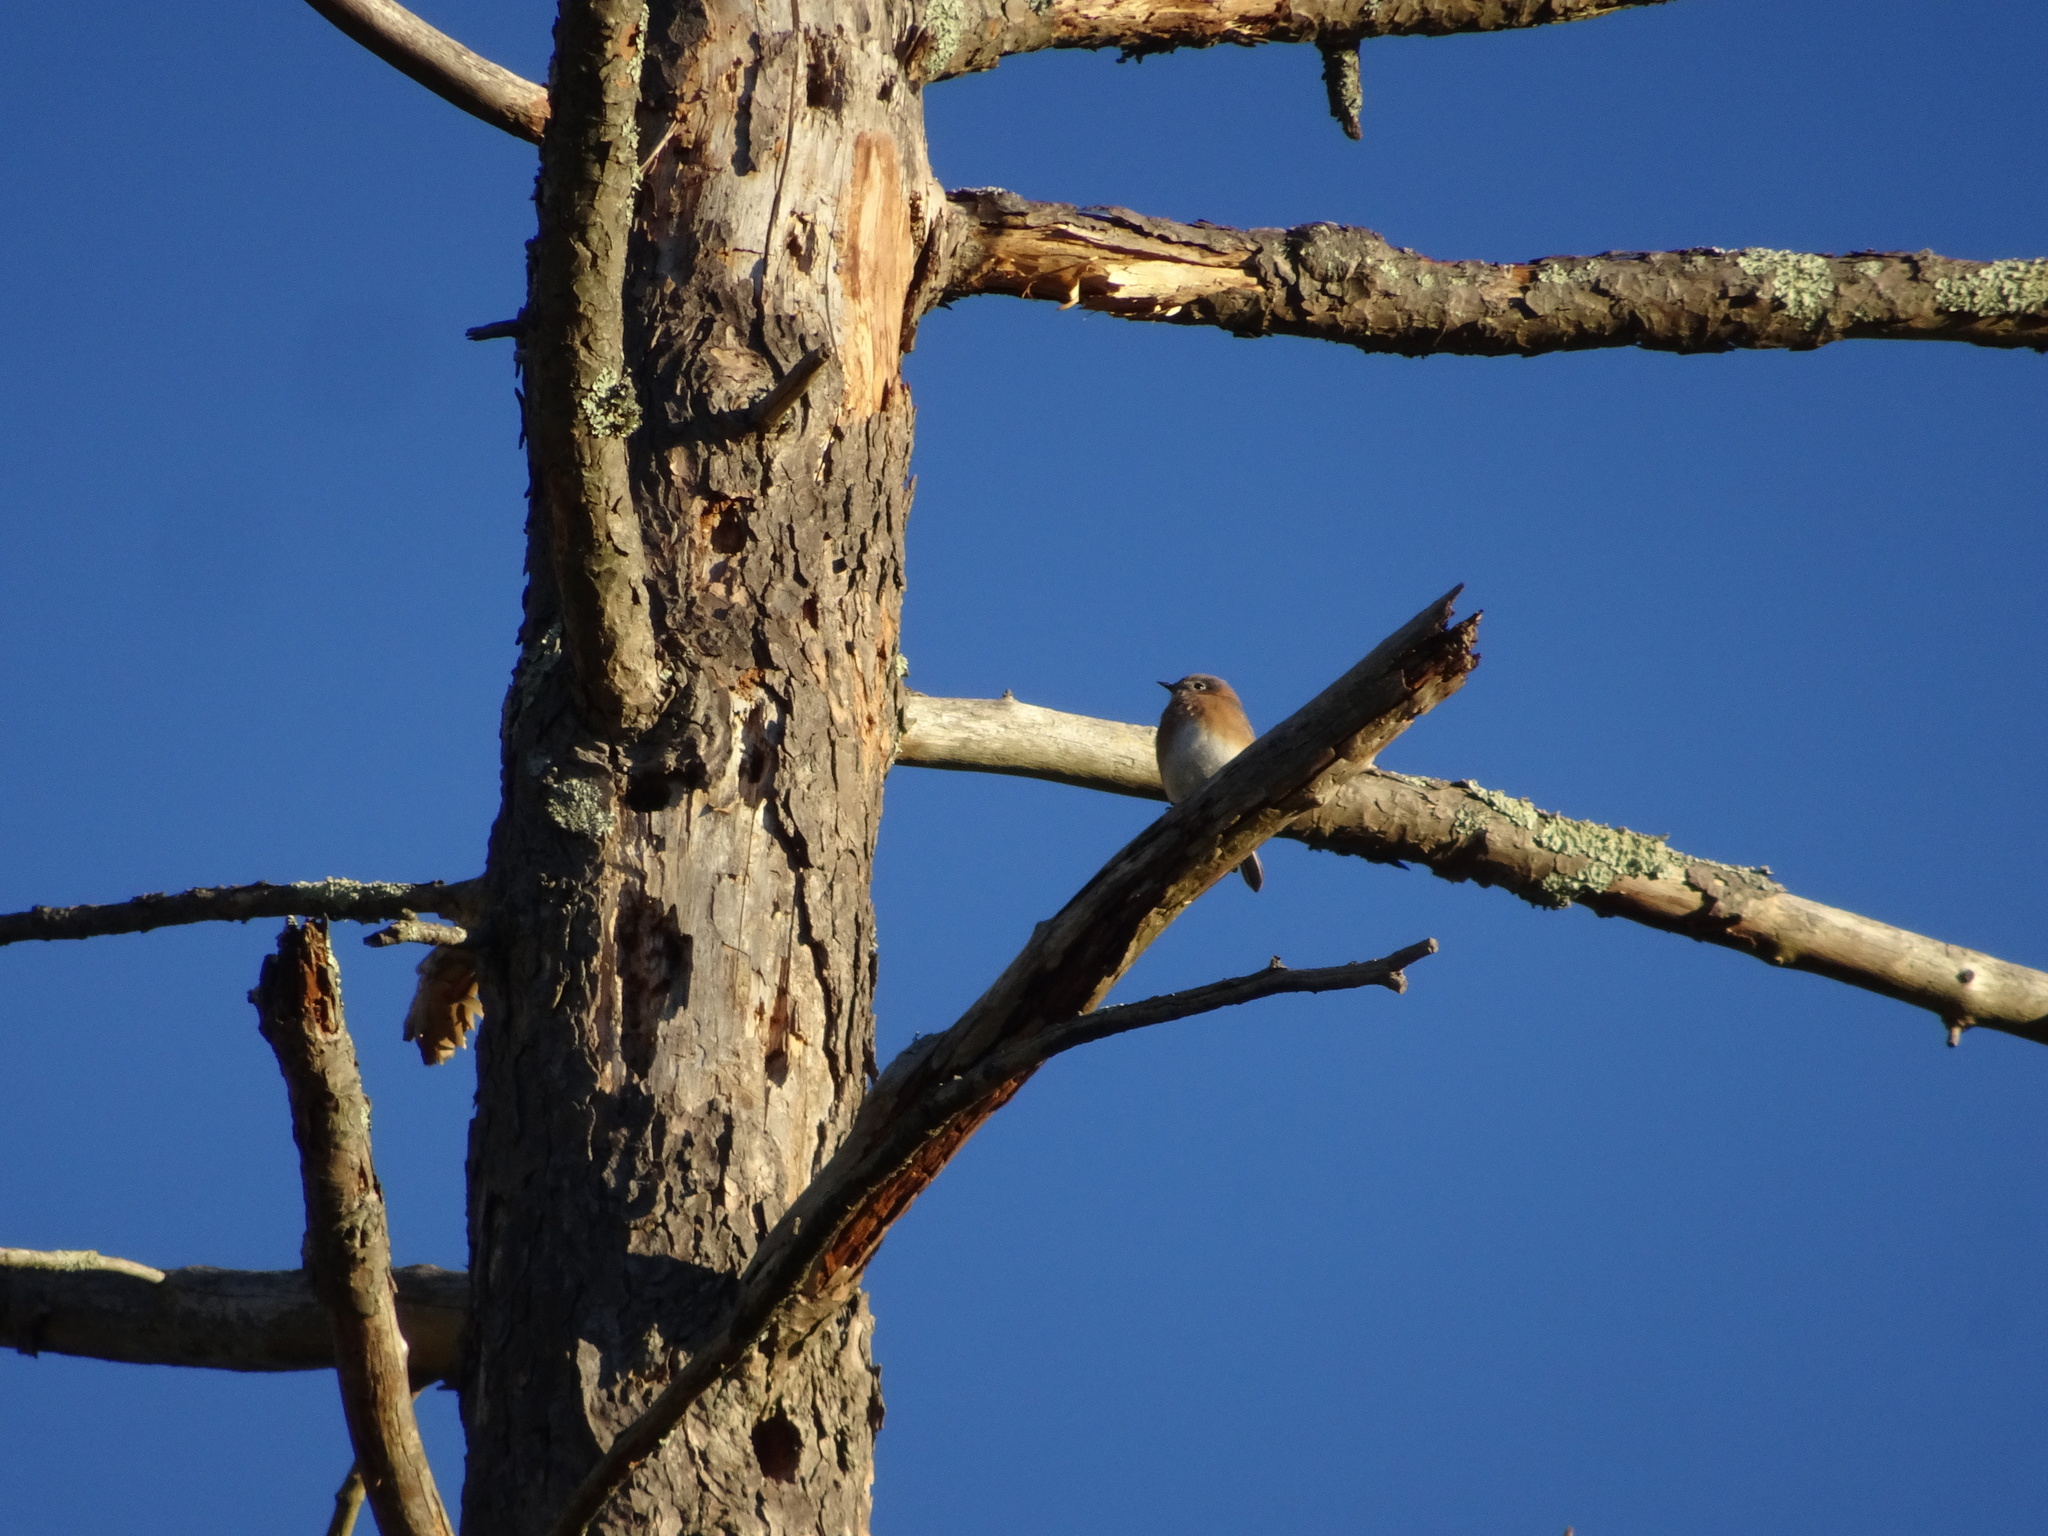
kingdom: Animalia
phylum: Chordata
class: Aves
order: Passeriformes
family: Turdidae
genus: Sialia
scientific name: Sialia sialis
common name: Eastern bluebird
